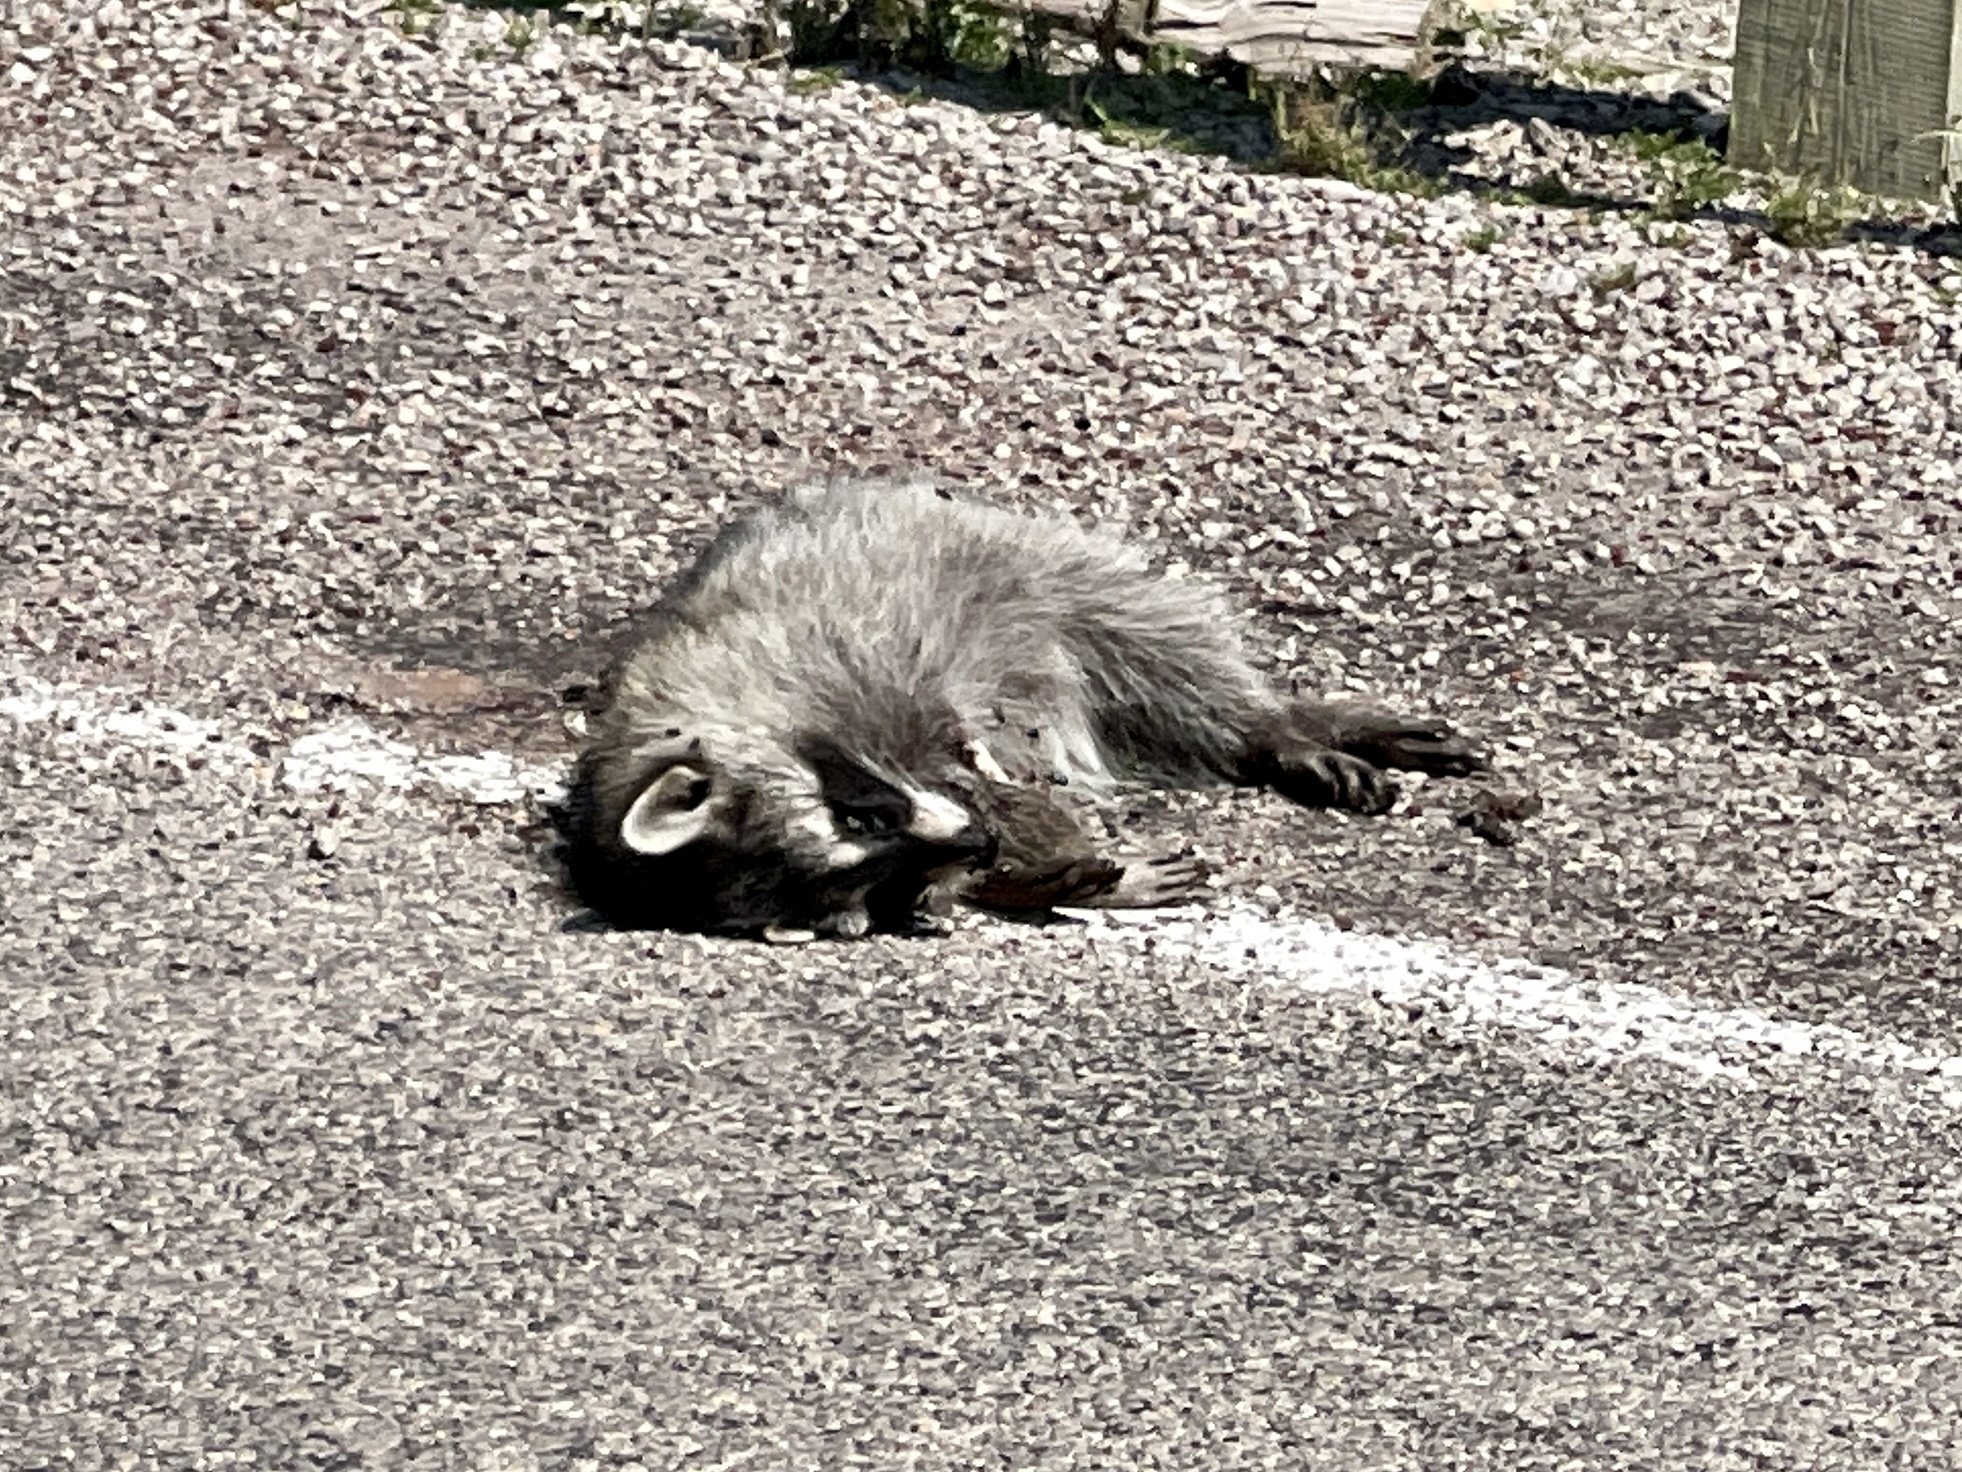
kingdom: Animalia
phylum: Chordata
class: Mammalia
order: Carnivora
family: Procyonidae
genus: Procyon
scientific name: Procyon lotor
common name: Raccoon
